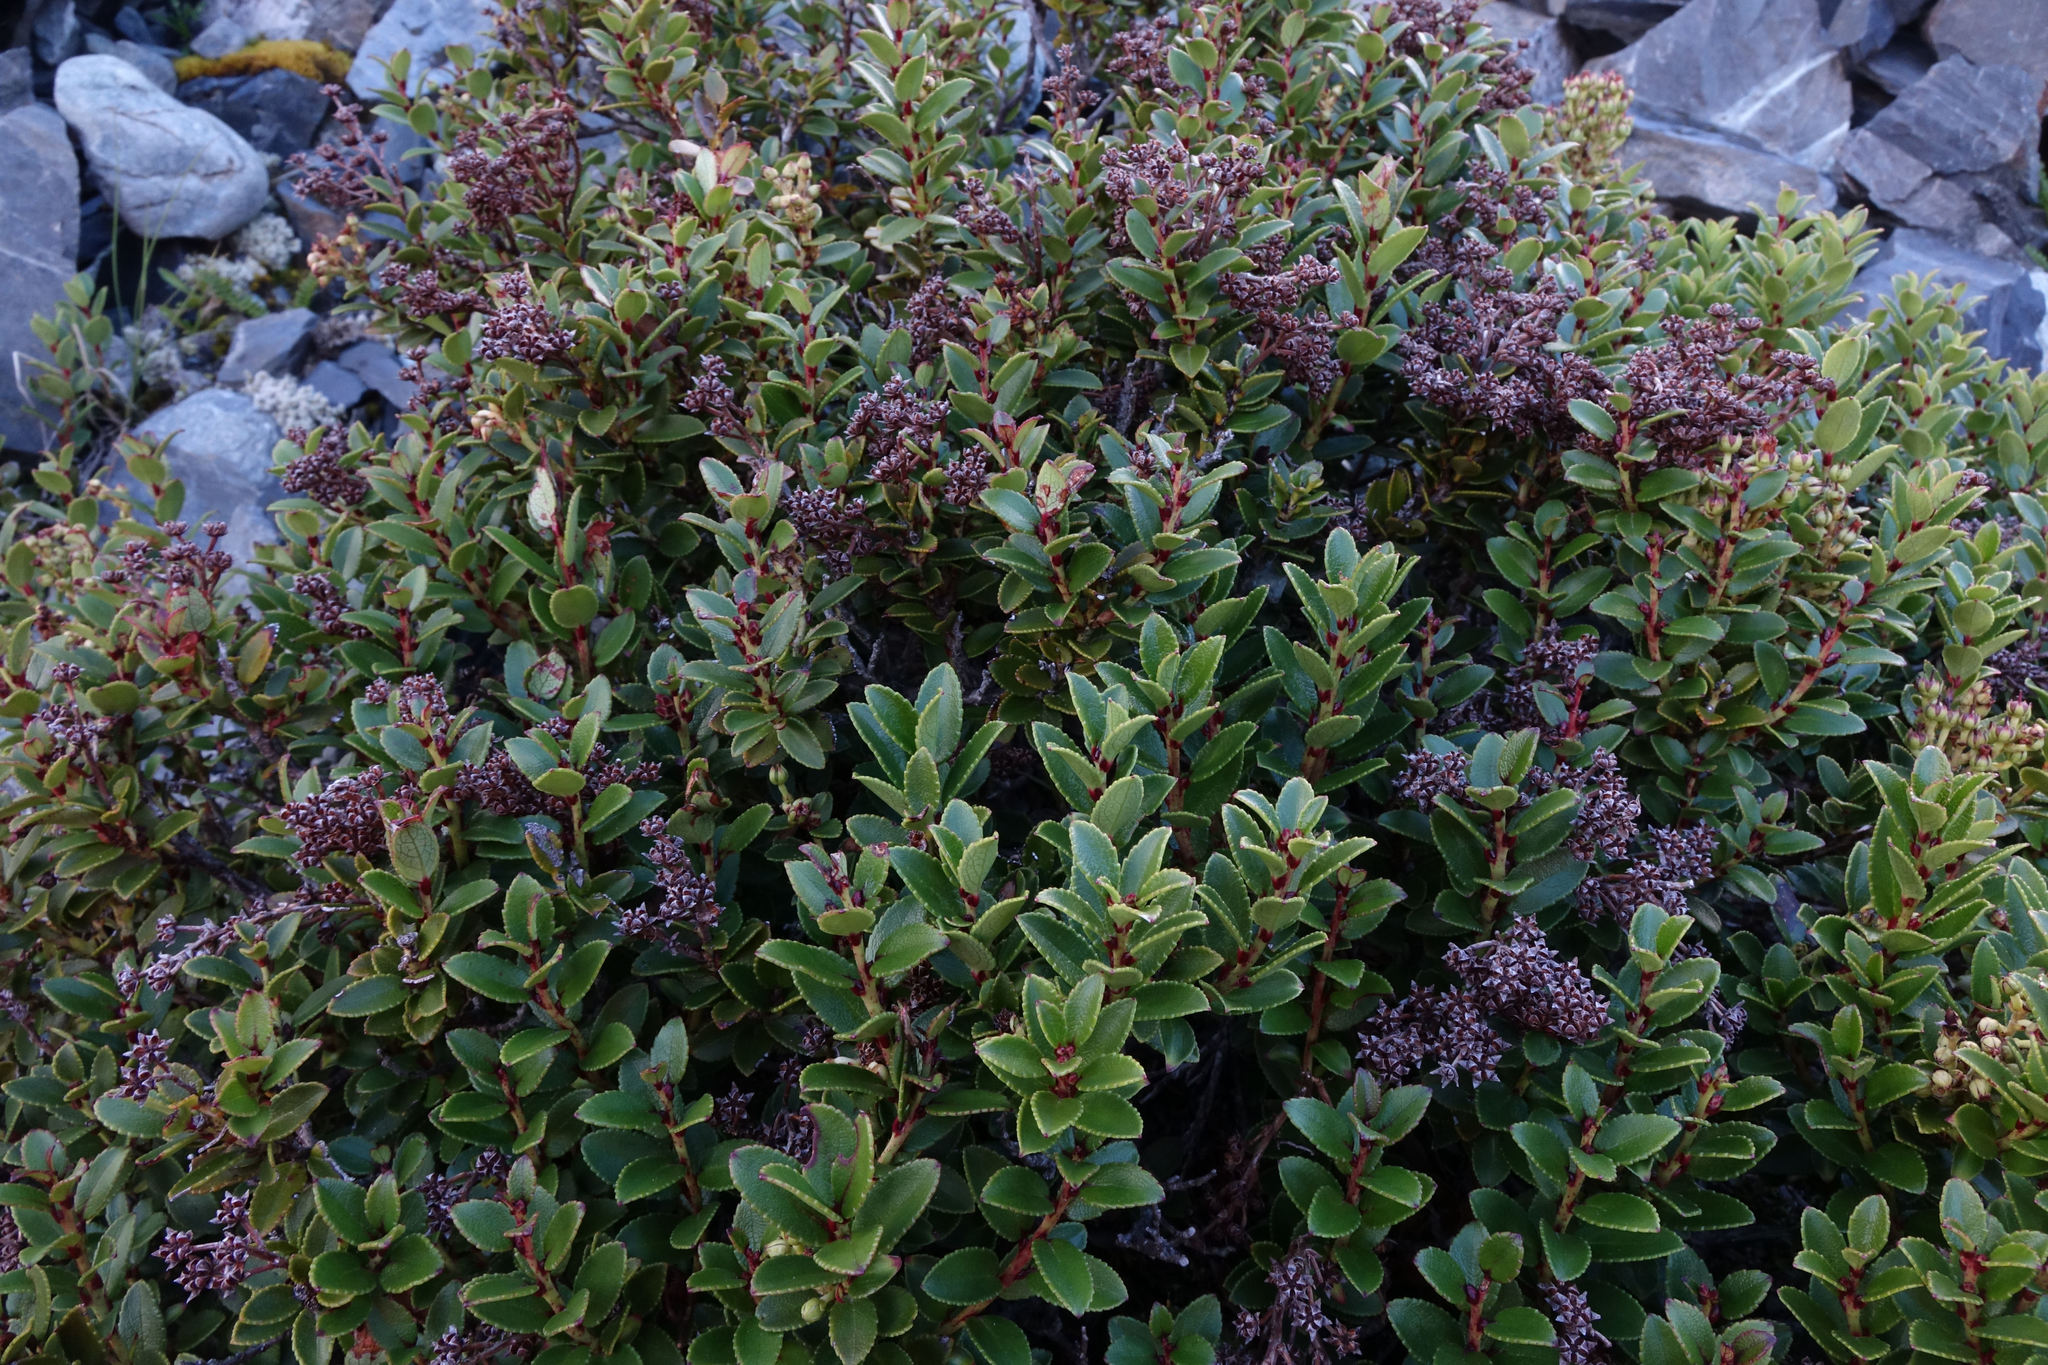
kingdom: Plantae
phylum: Tracheophyta
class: Magnoliopsida
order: Ericales
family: Ericaceae
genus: Gaultheria
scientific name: Gaultheria crassa
